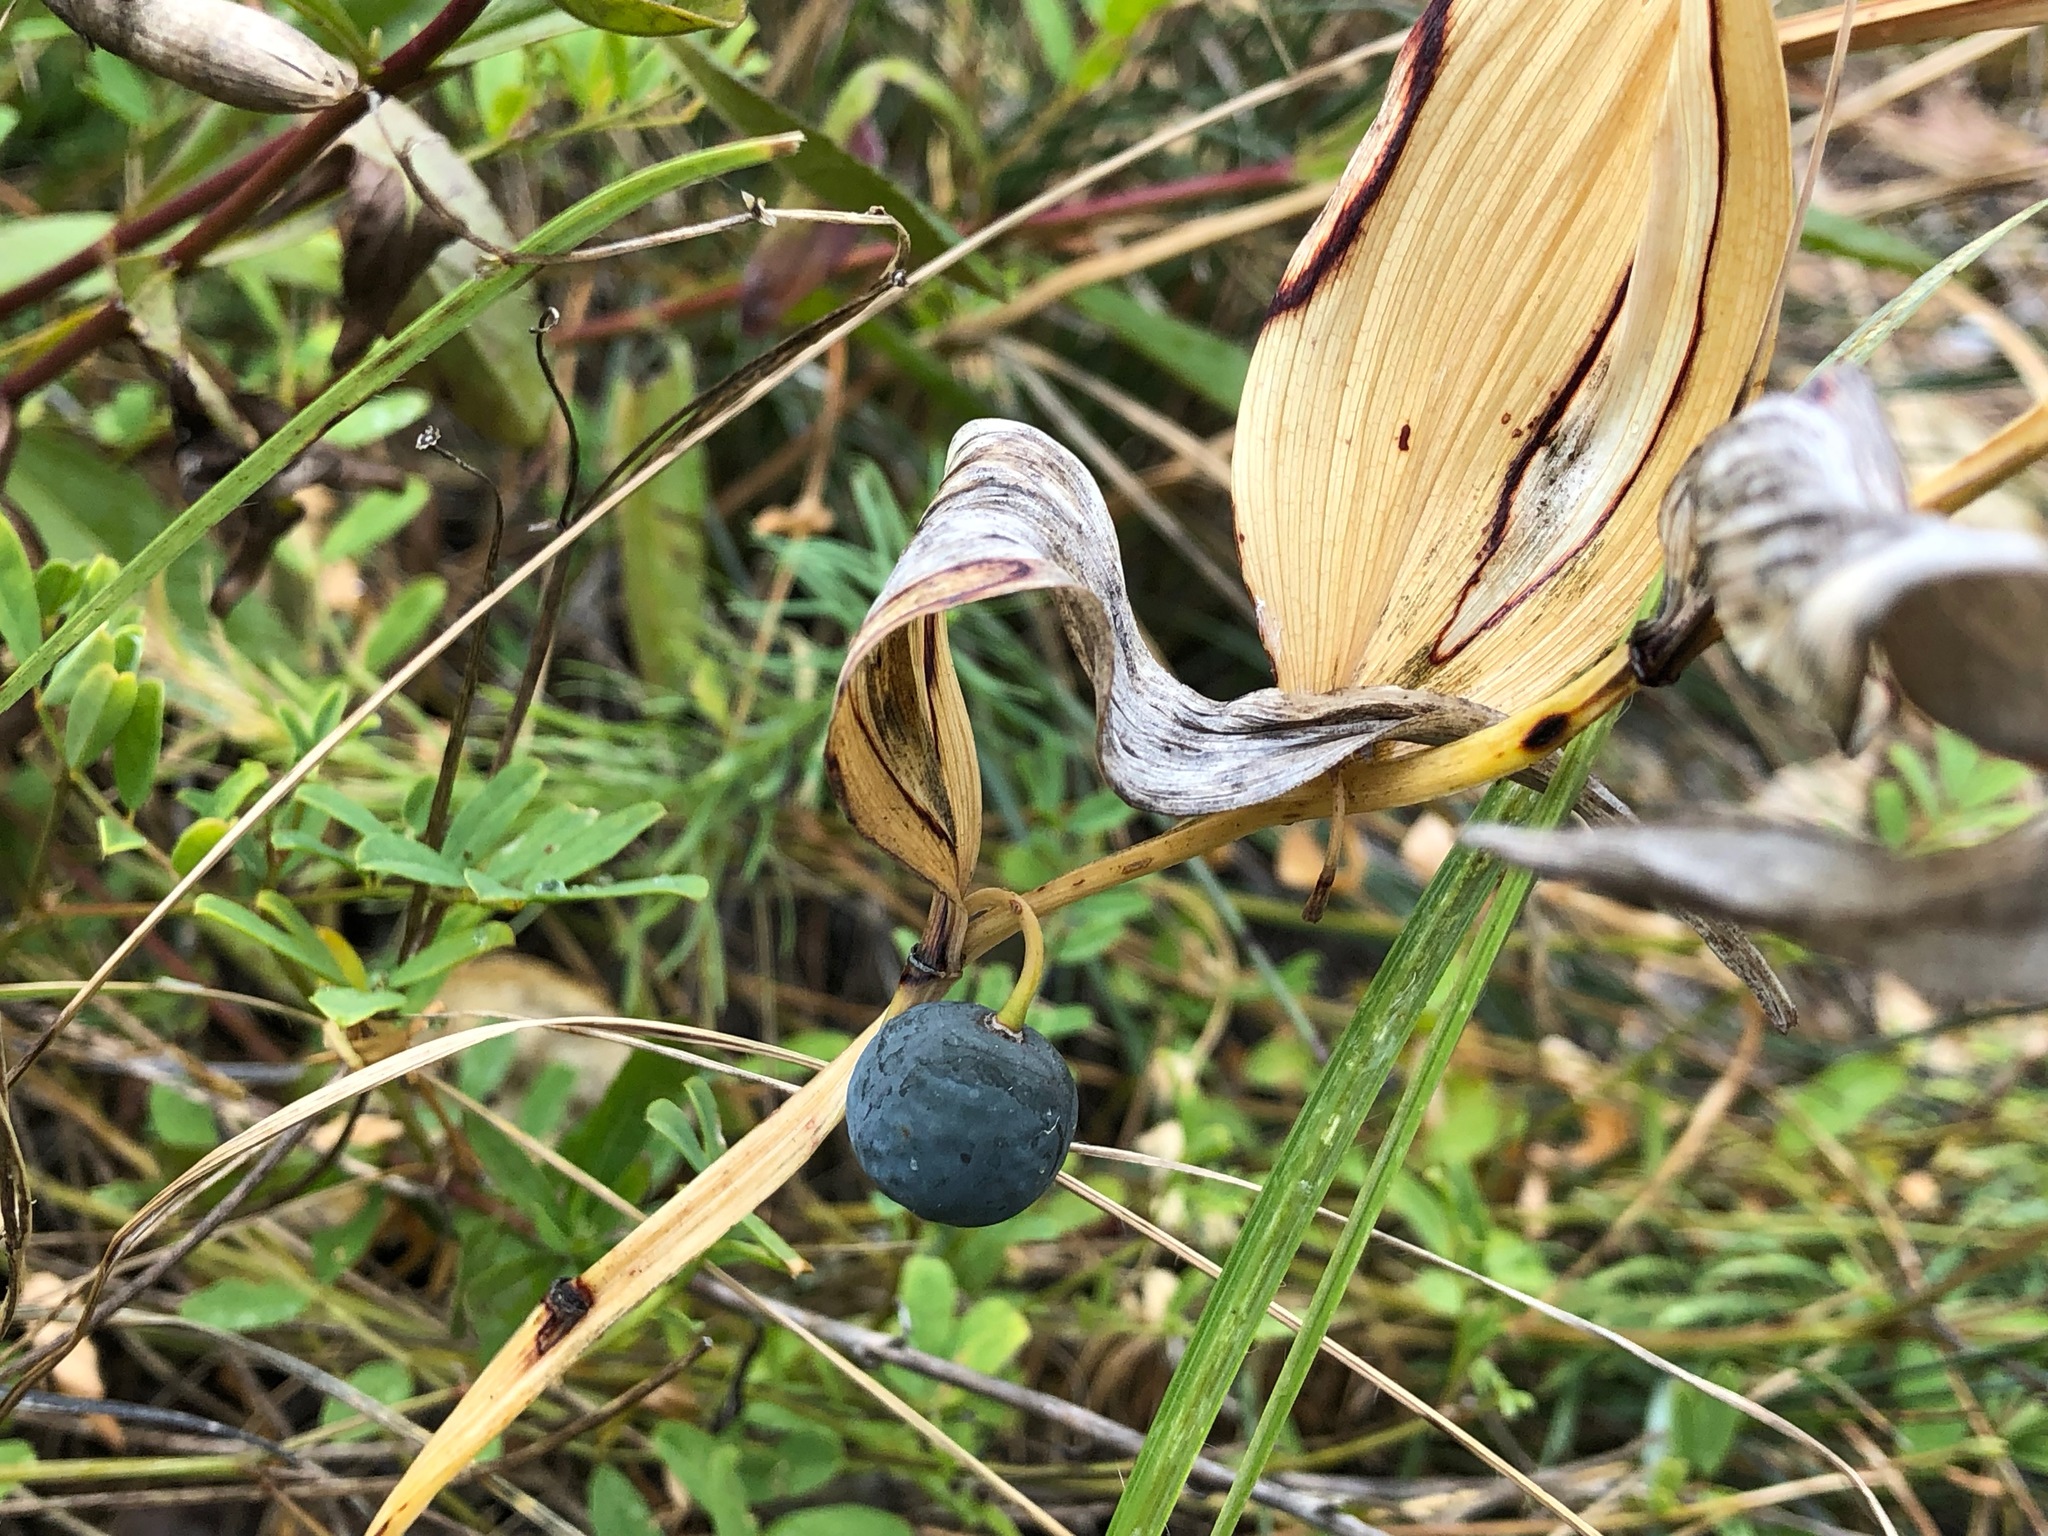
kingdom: Plantae
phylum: Tracheophyta
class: Liliopsida
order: Asparagales
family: Asparagaceae
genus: Polygonatum
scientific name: Polygonatum odoratum
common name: Angular solomon's-seal
